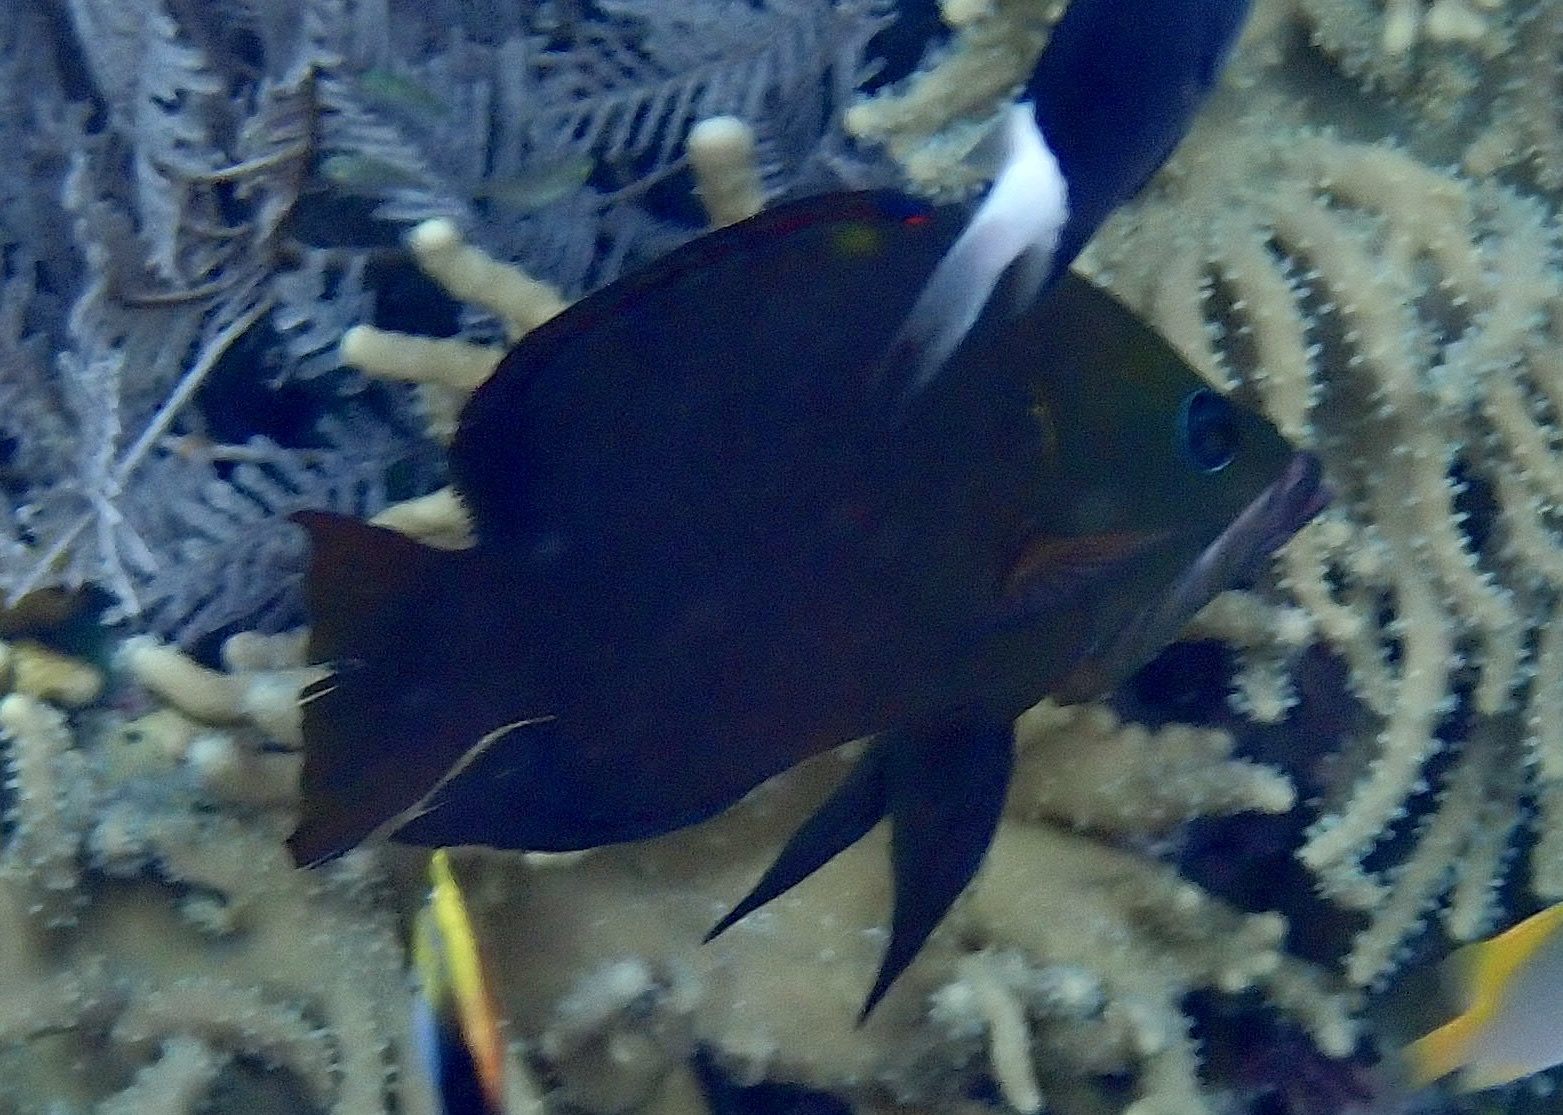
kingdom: Animalia
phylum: Chordata
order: Perciformes
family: Labridae
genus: Epibulus
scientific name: Epibulus insidiator
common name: Slingjaw wrasse
